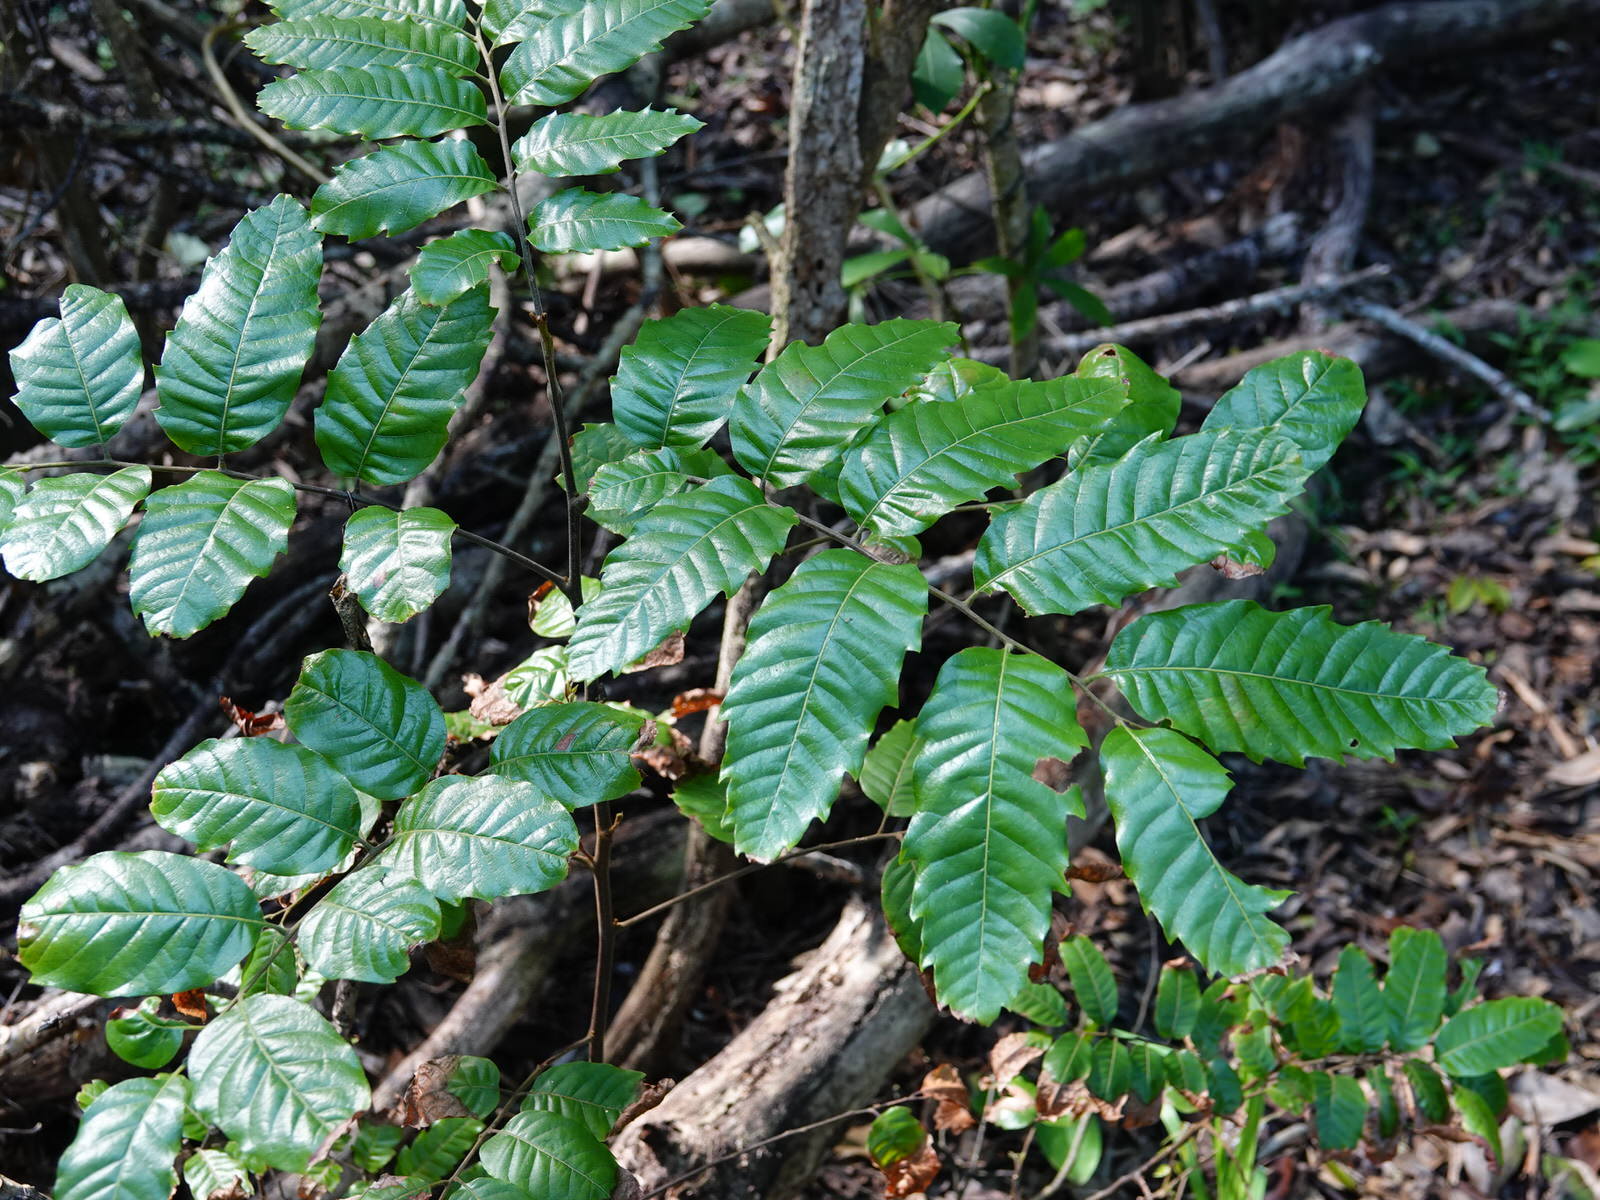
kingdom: Plantae
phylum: Tracheophyta
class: Magnoliopsida
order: Sapindales
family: Sapindaceae
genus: Alectryon
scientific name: Alectryon excelsus
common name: Three kings titoki
